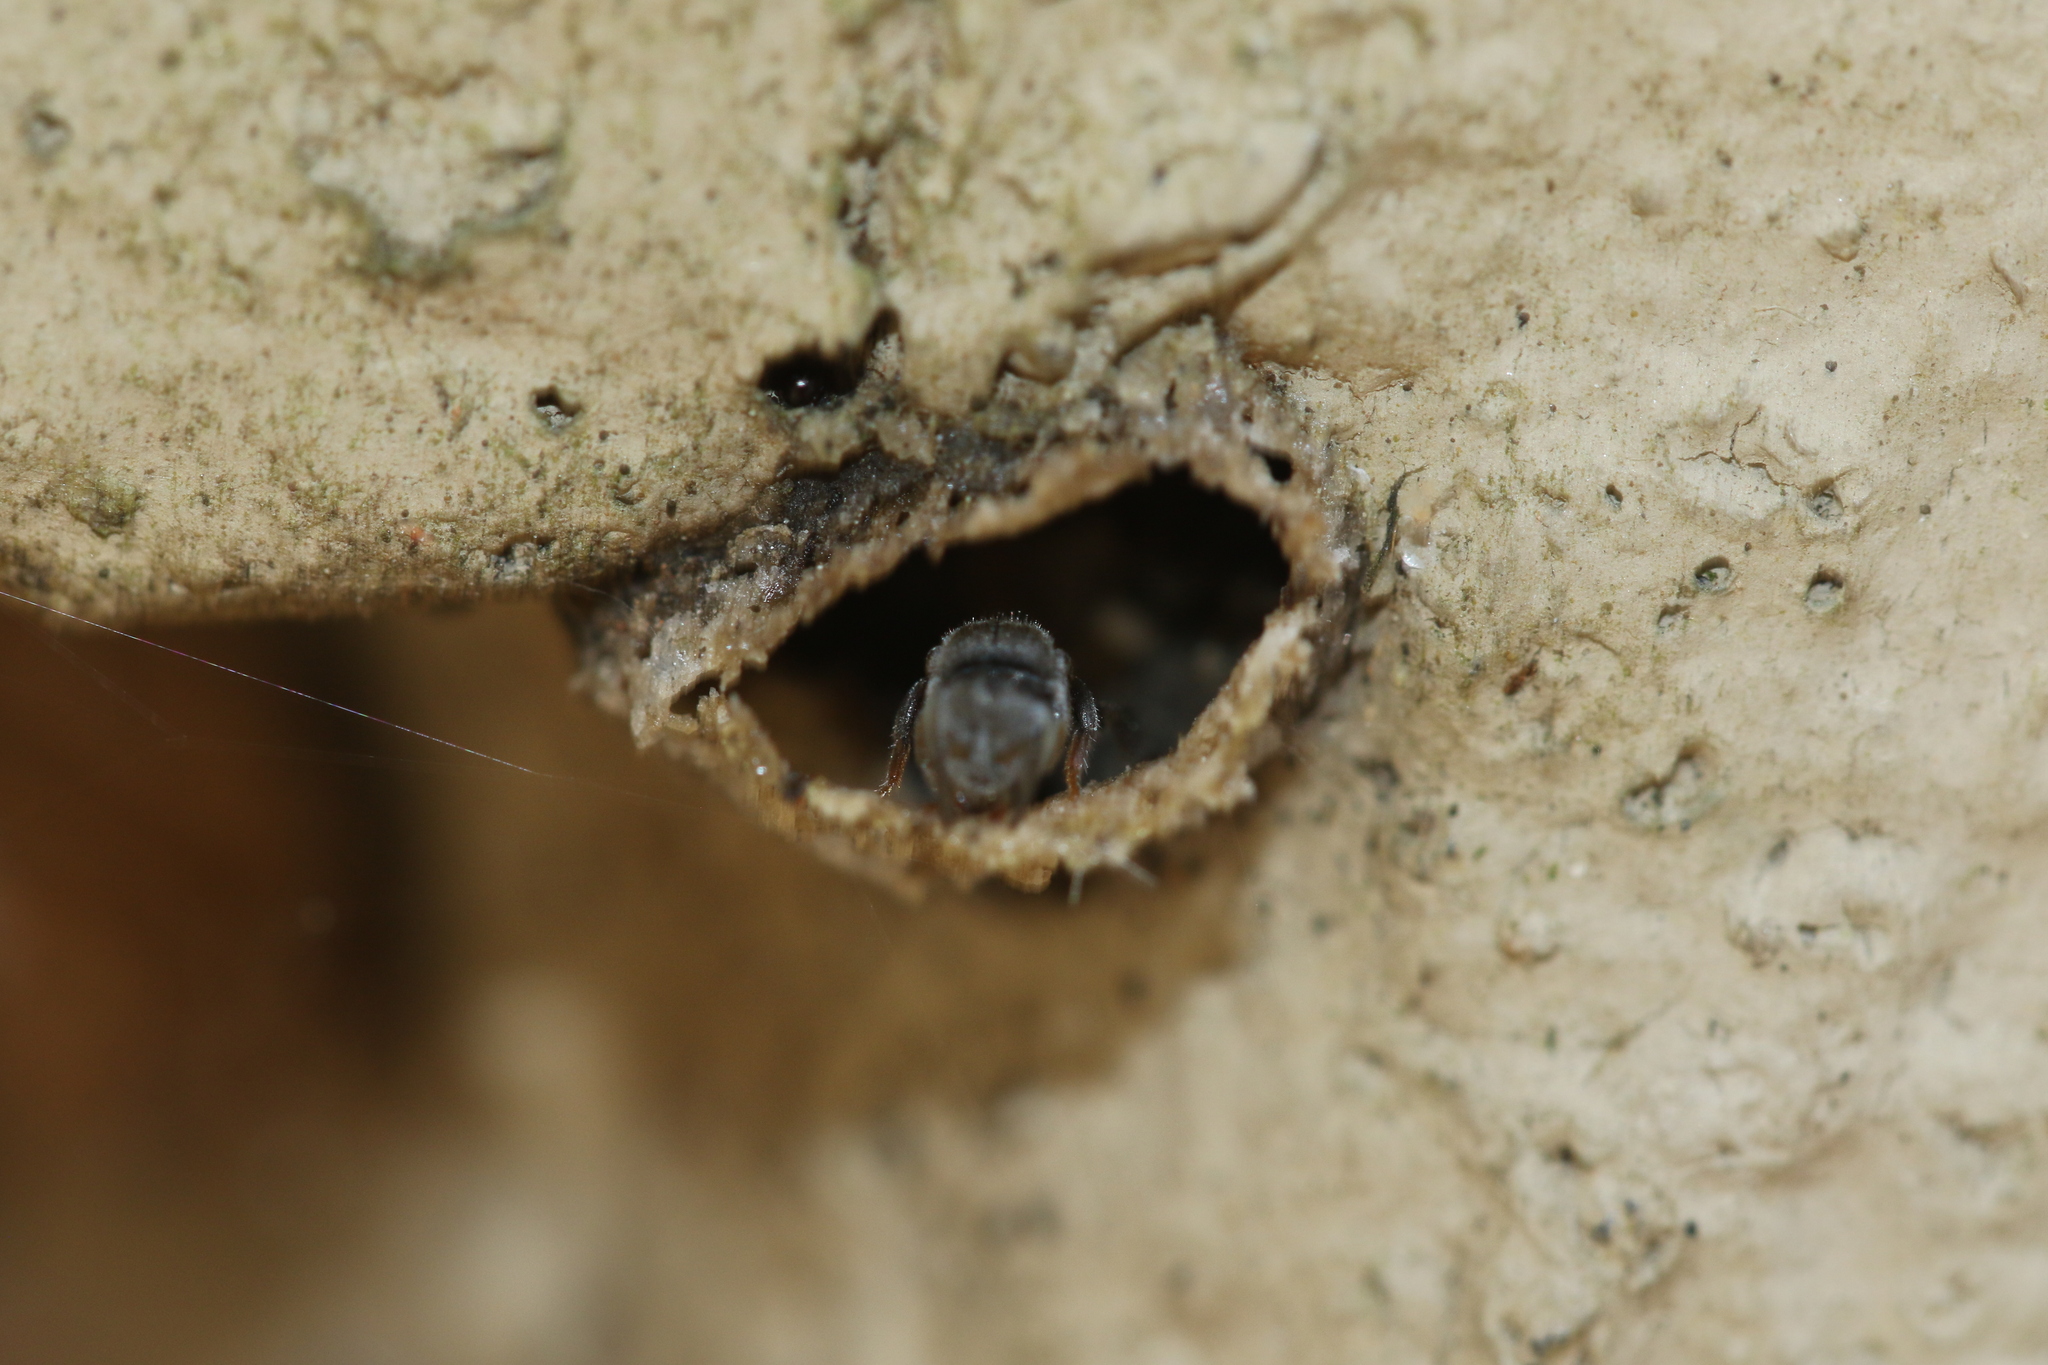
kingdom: Animalia
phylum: Arthropoda
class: Insecta
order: Hymenoptera
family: Apidae
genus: Friesella
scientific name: Friesella schrottkyi
